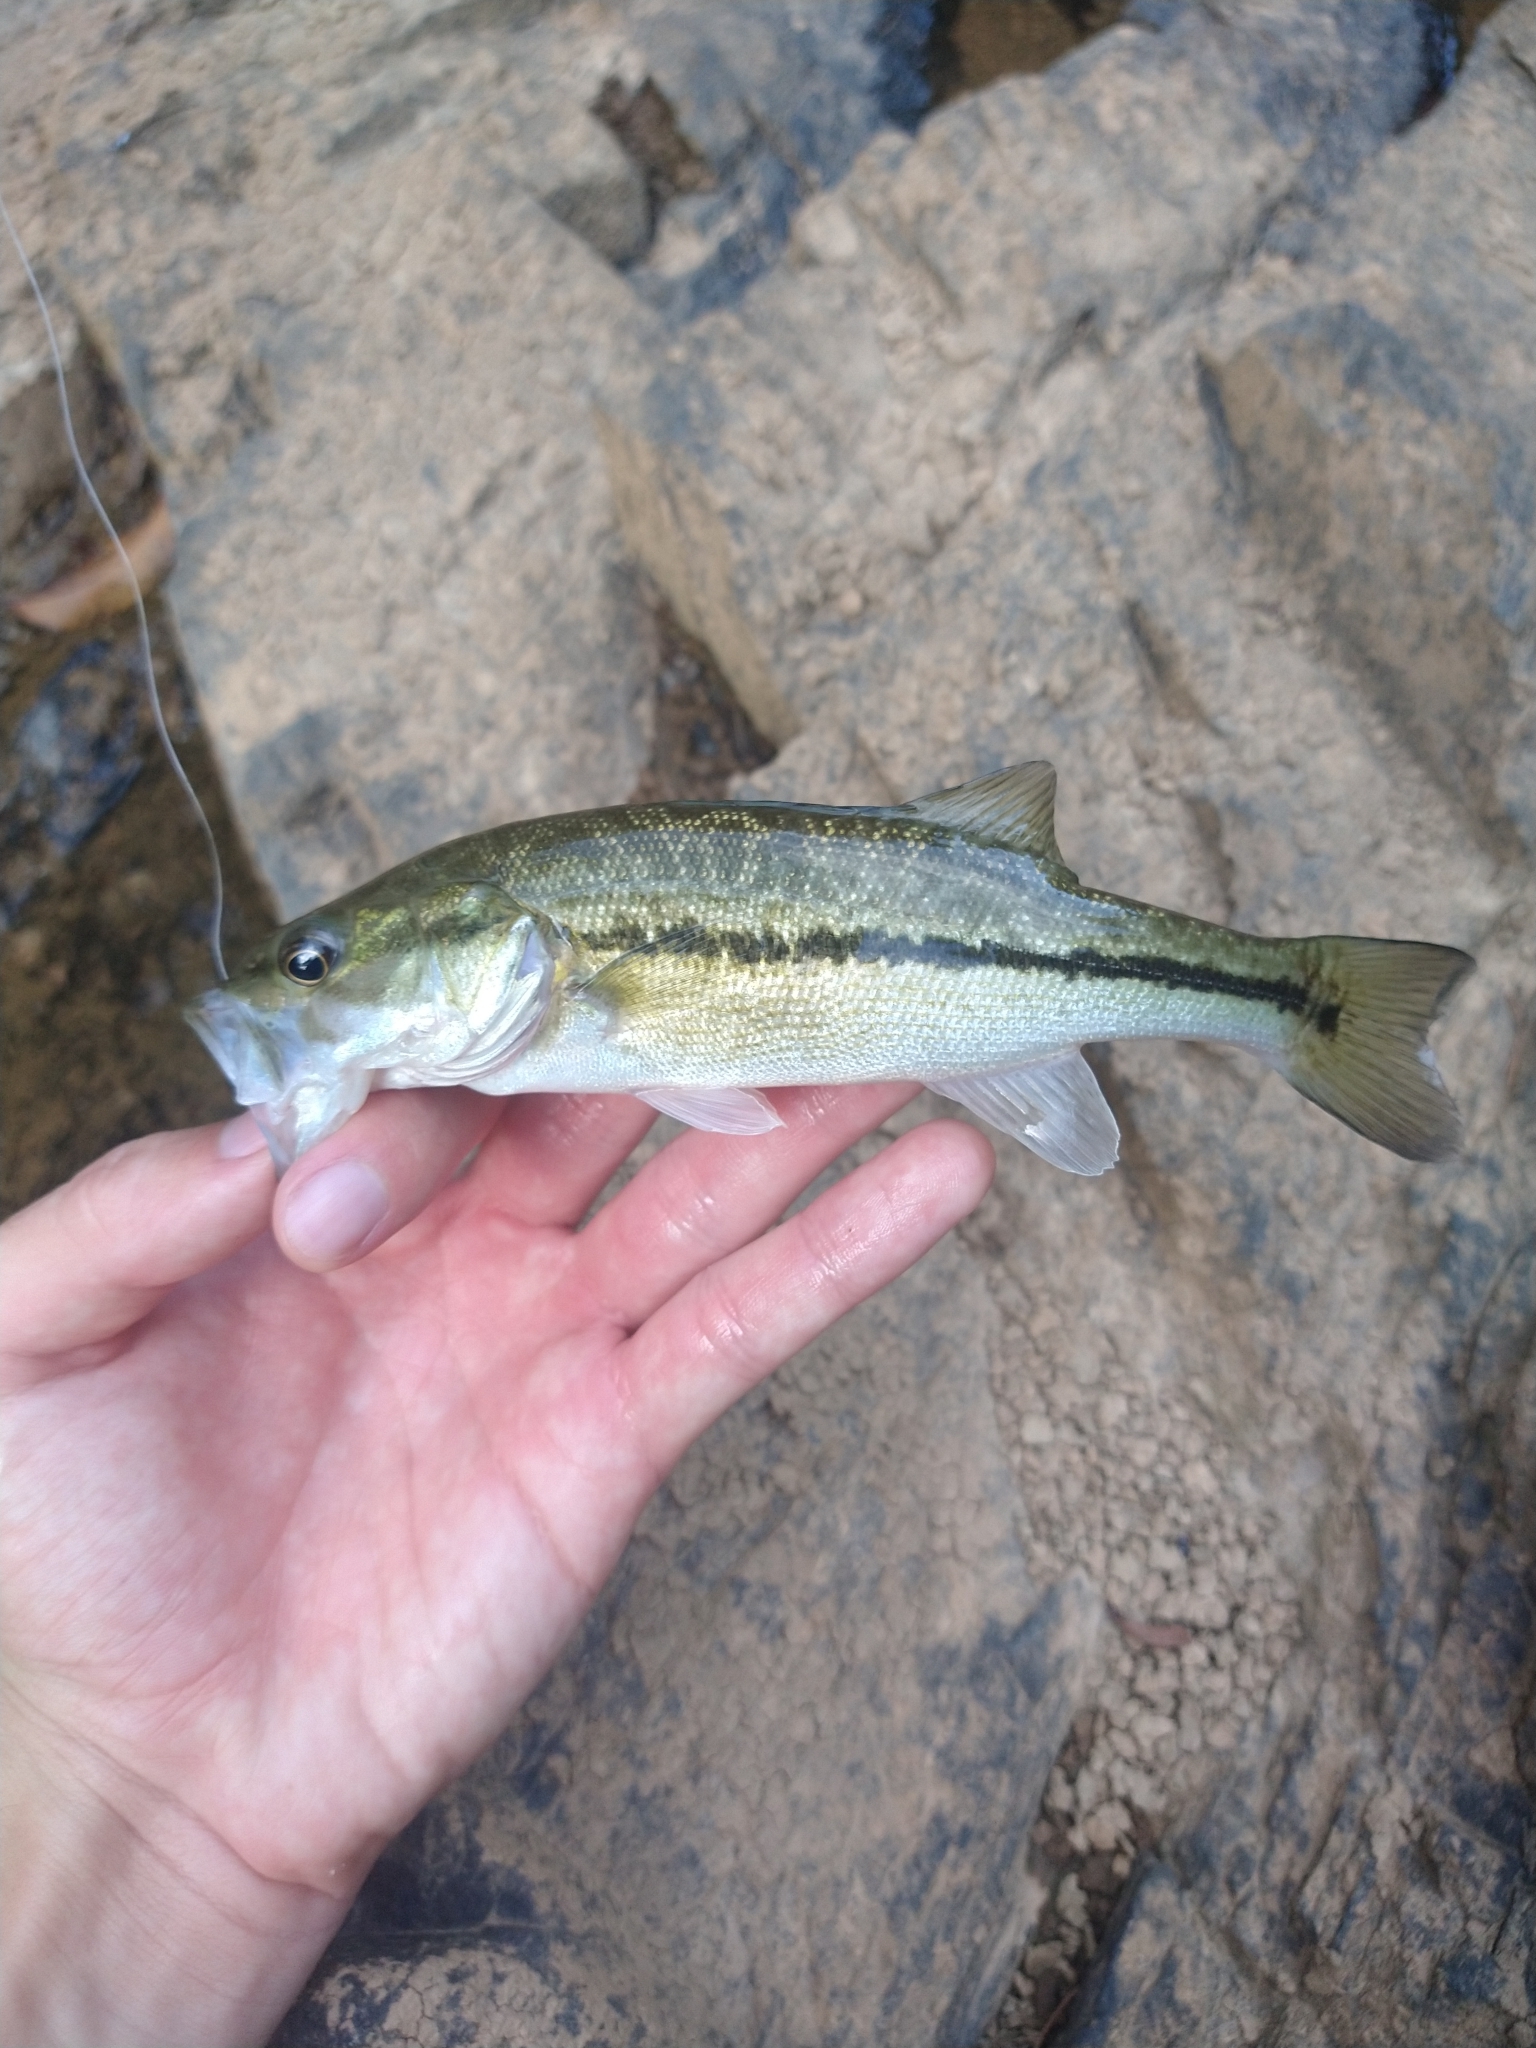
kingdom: Animalia
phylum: Chordata
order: Perciformes
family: Centrarchidae
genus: Micropterus
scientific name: Micropterus henshalli
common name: Alabama bass
